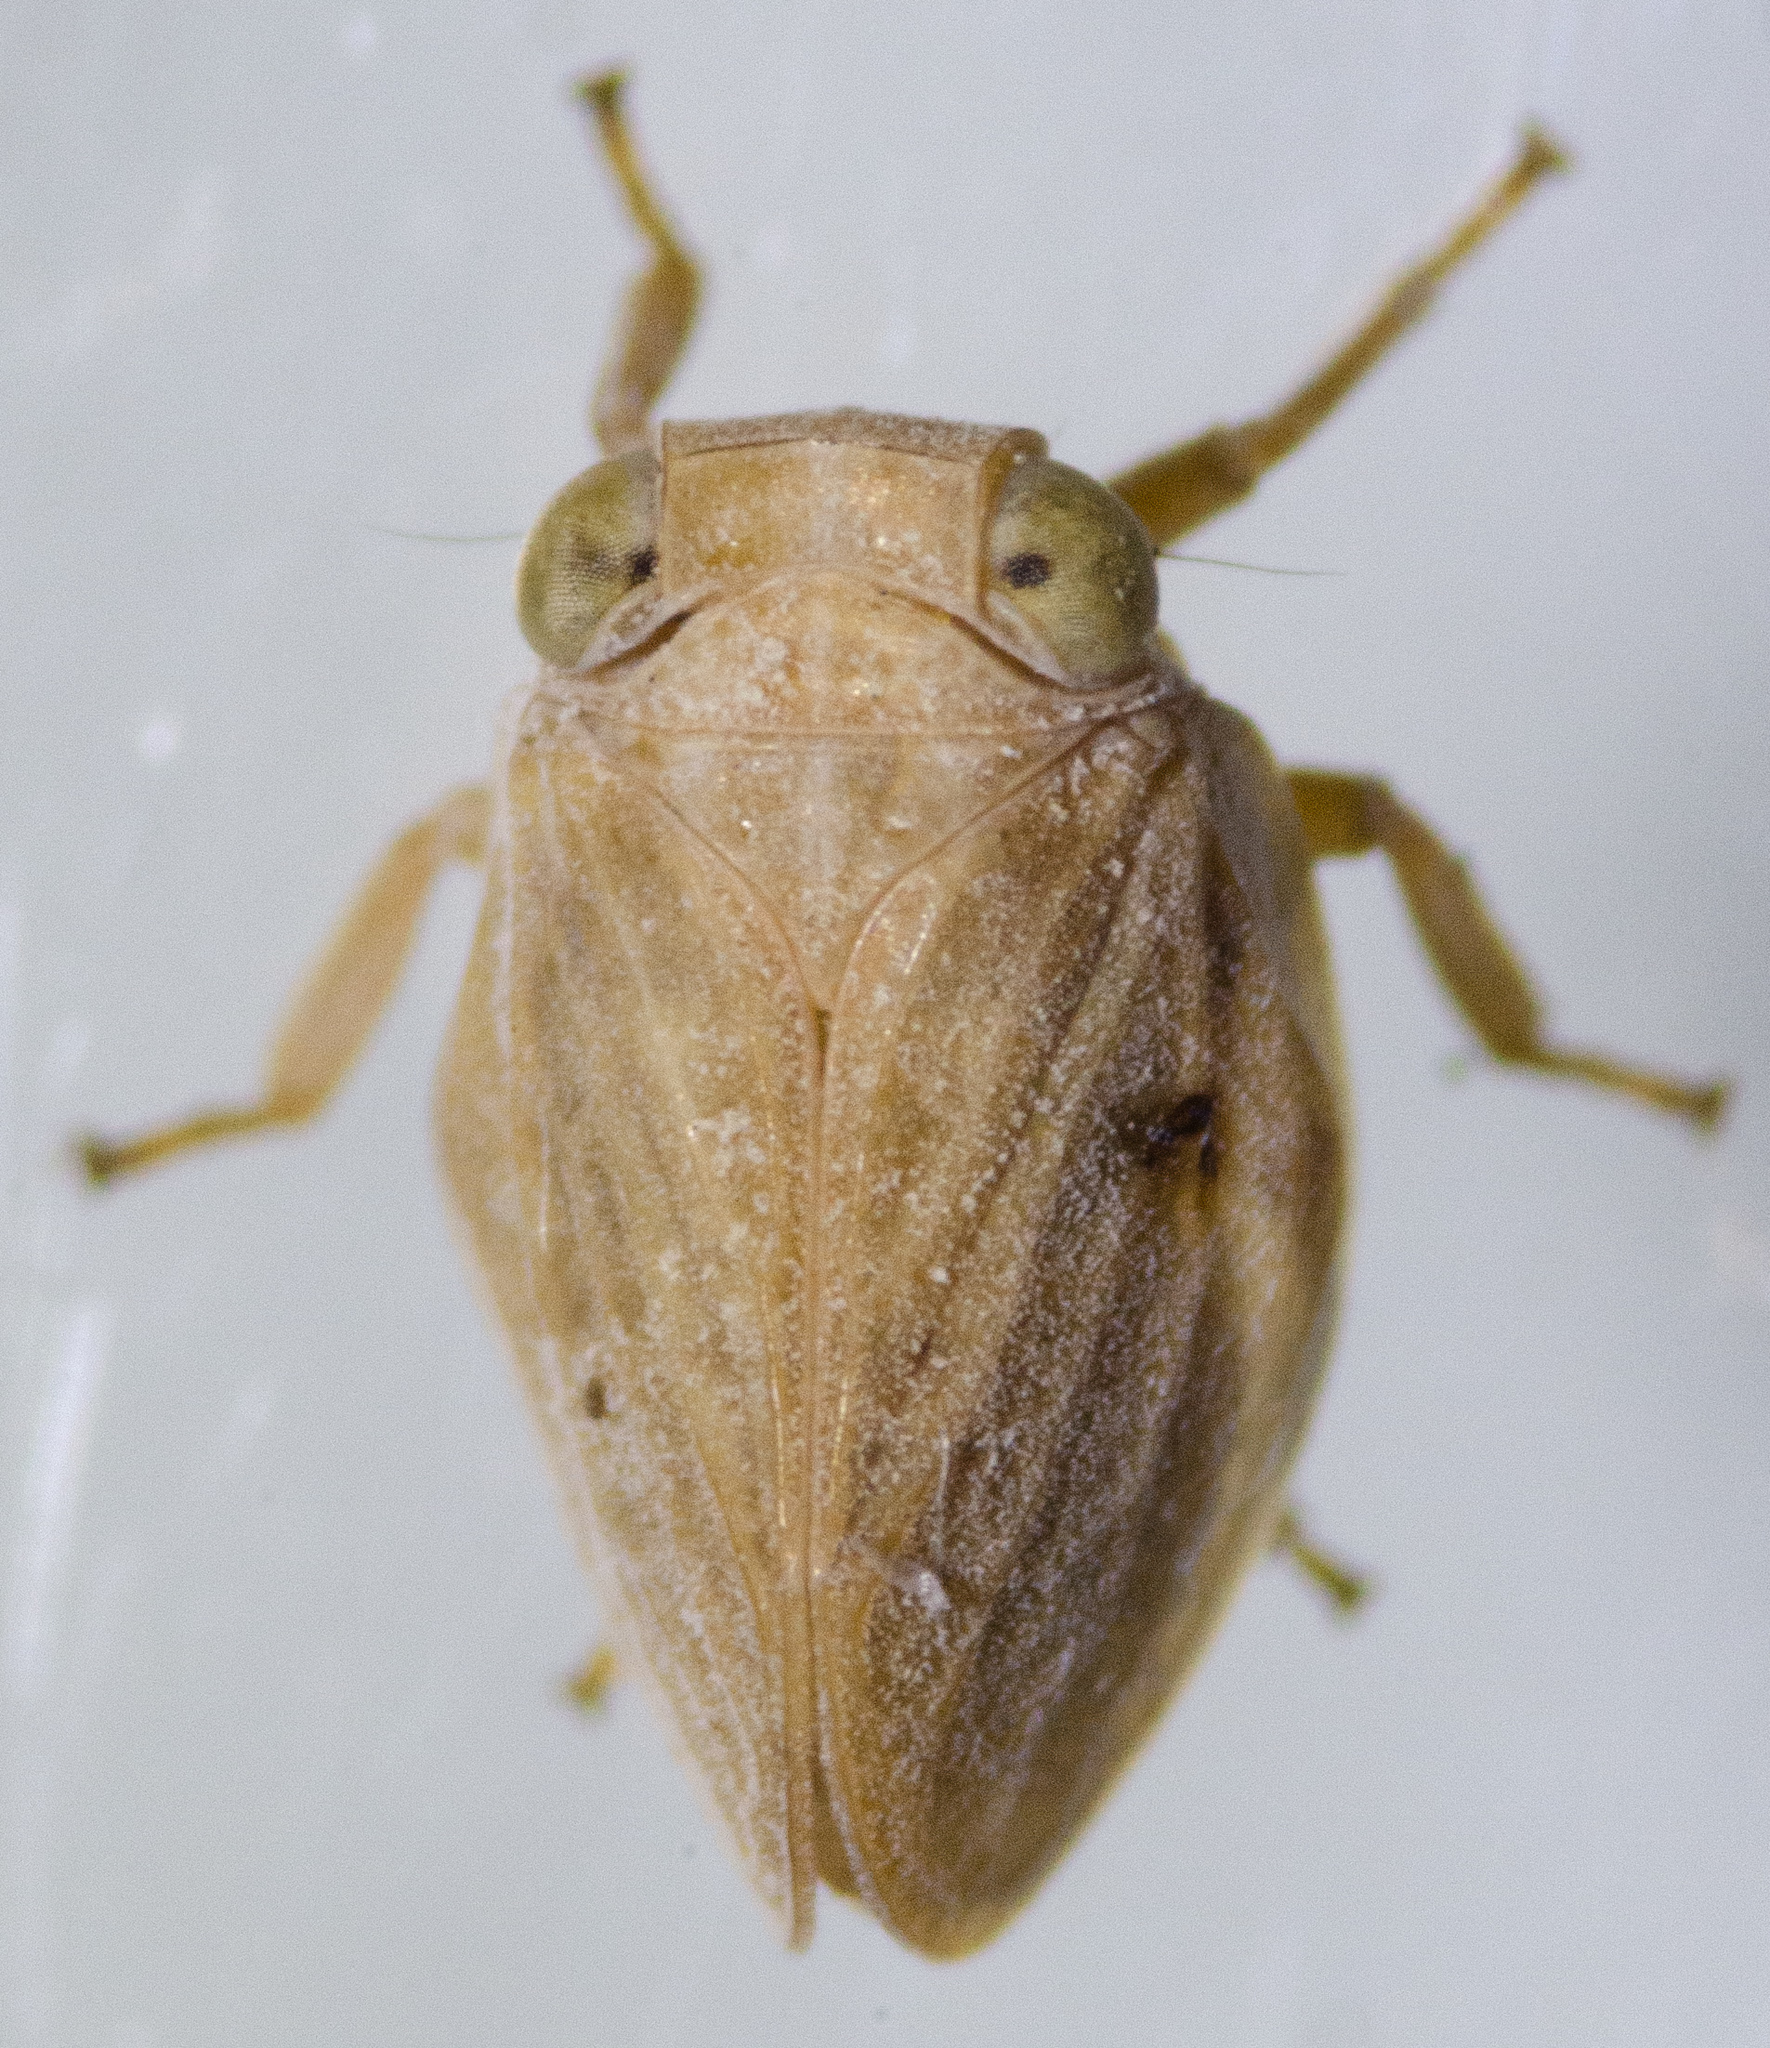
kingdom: Animalia
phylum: Arthropoda
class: Insecta
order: Hemiptera
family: Issidae
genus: Agalmatium
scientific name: Agalmatium bilobum
